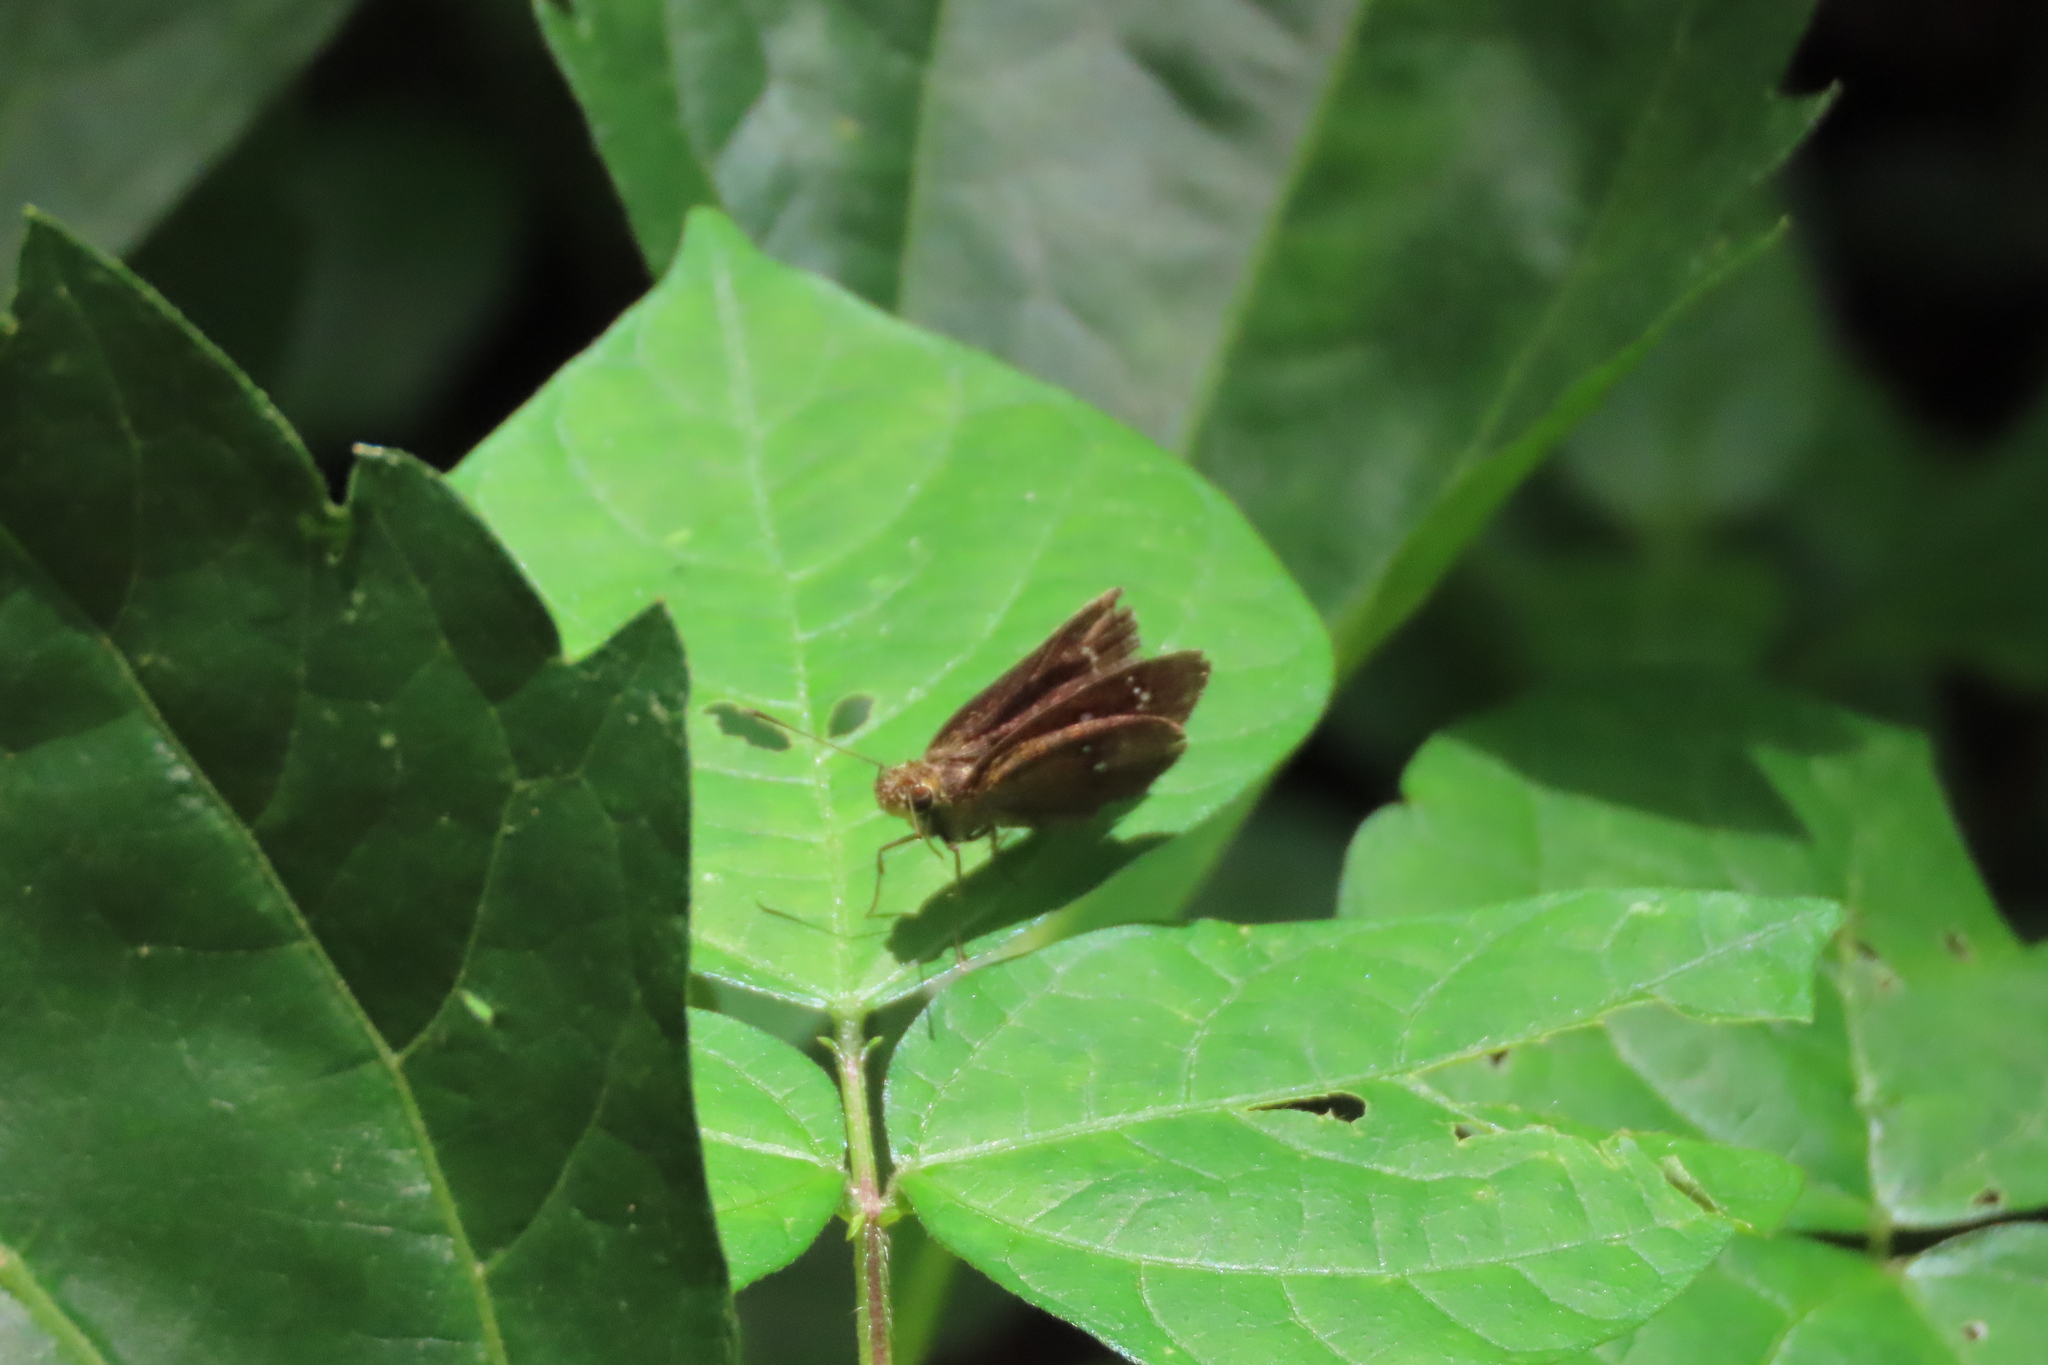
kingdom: Animalia
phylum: Arthropoda
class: Insecta
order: Lepidoptera
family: Hesperiidae
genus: Iambrix
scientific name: Iambrix salsala
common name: Chestnut bob
